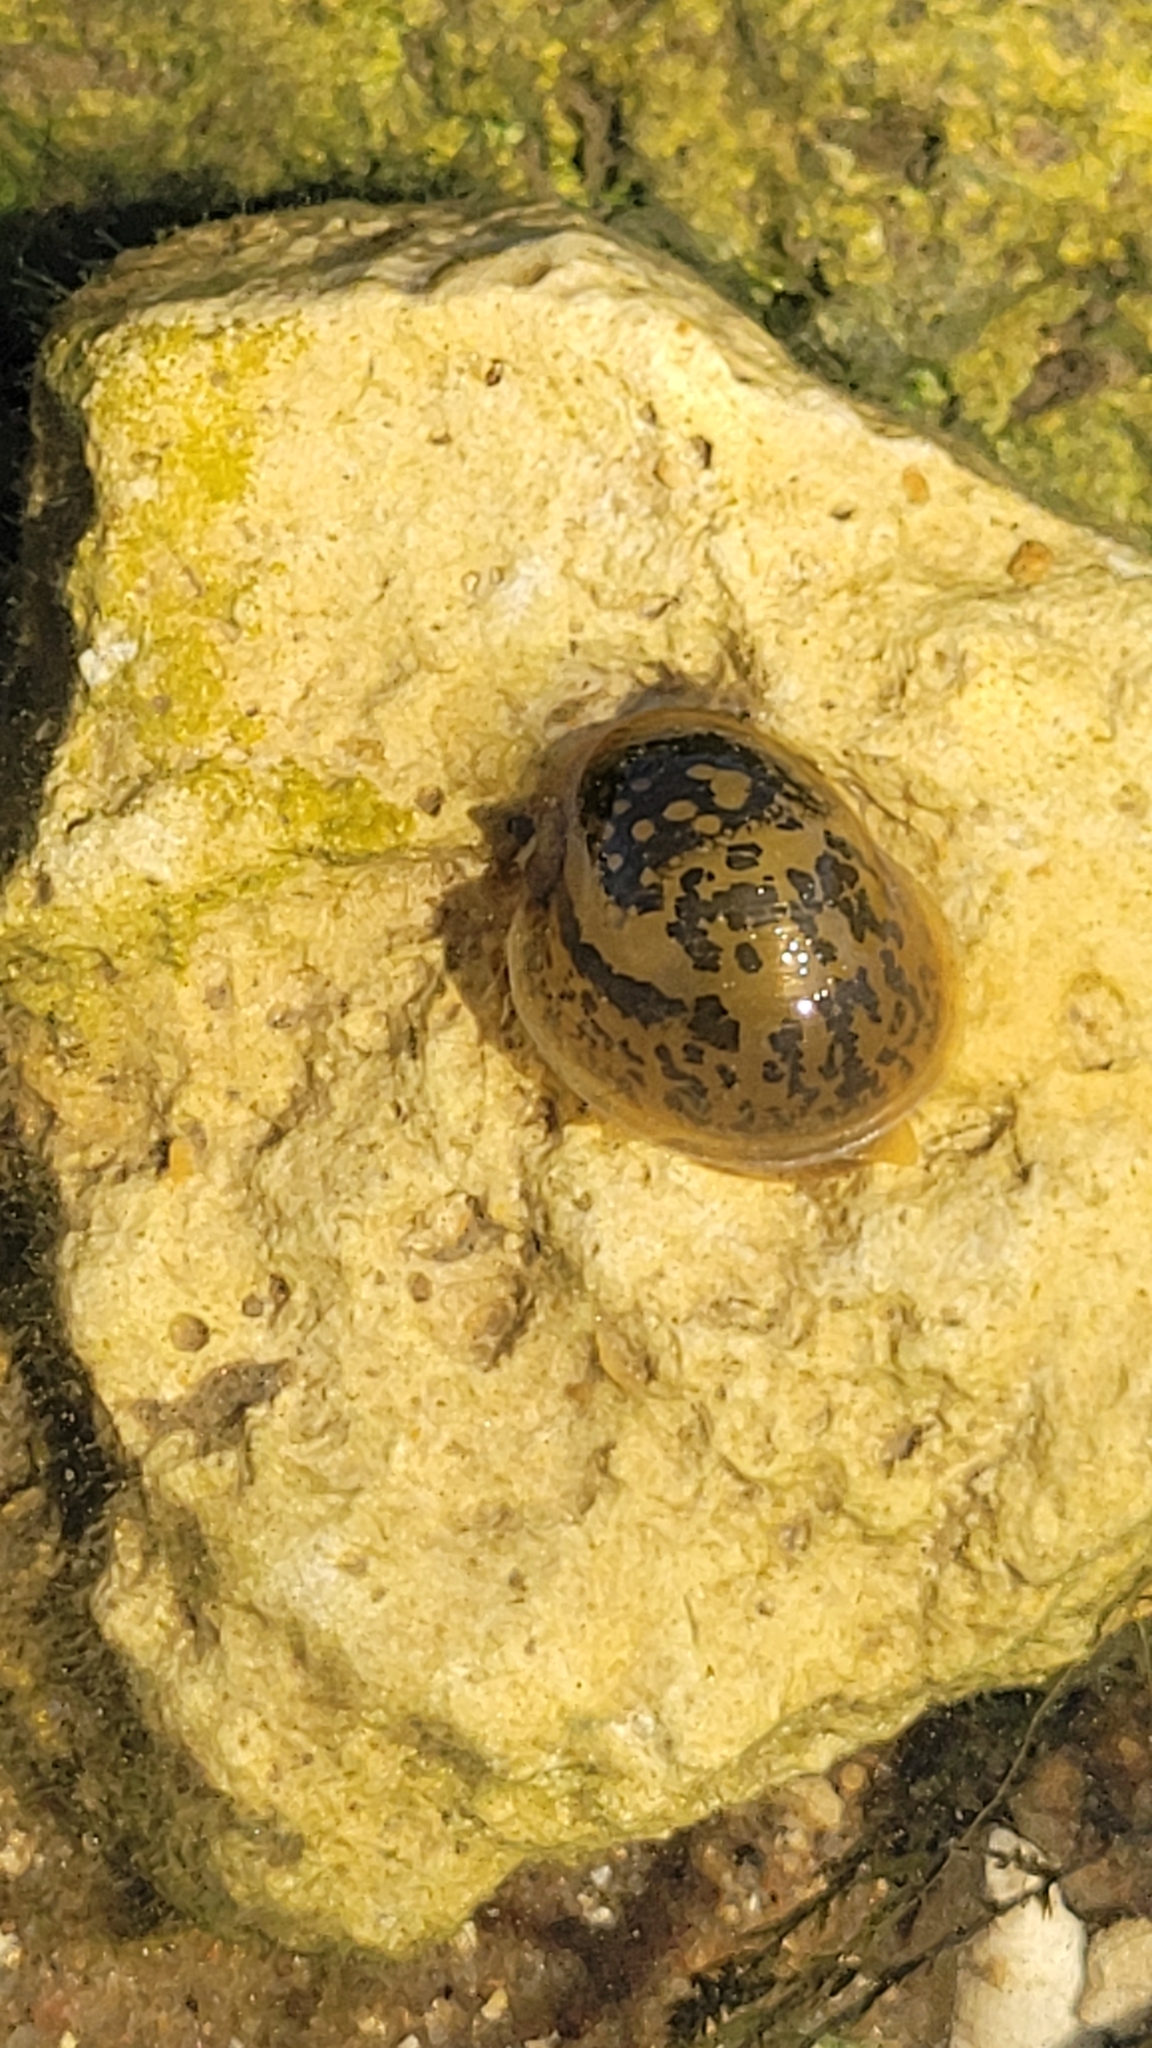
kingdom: Animalia
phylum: Mollusca
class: Gastropoda
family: Lymnaeidae
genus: Radix
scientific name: Radix auricularia
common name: Ear pond snail
